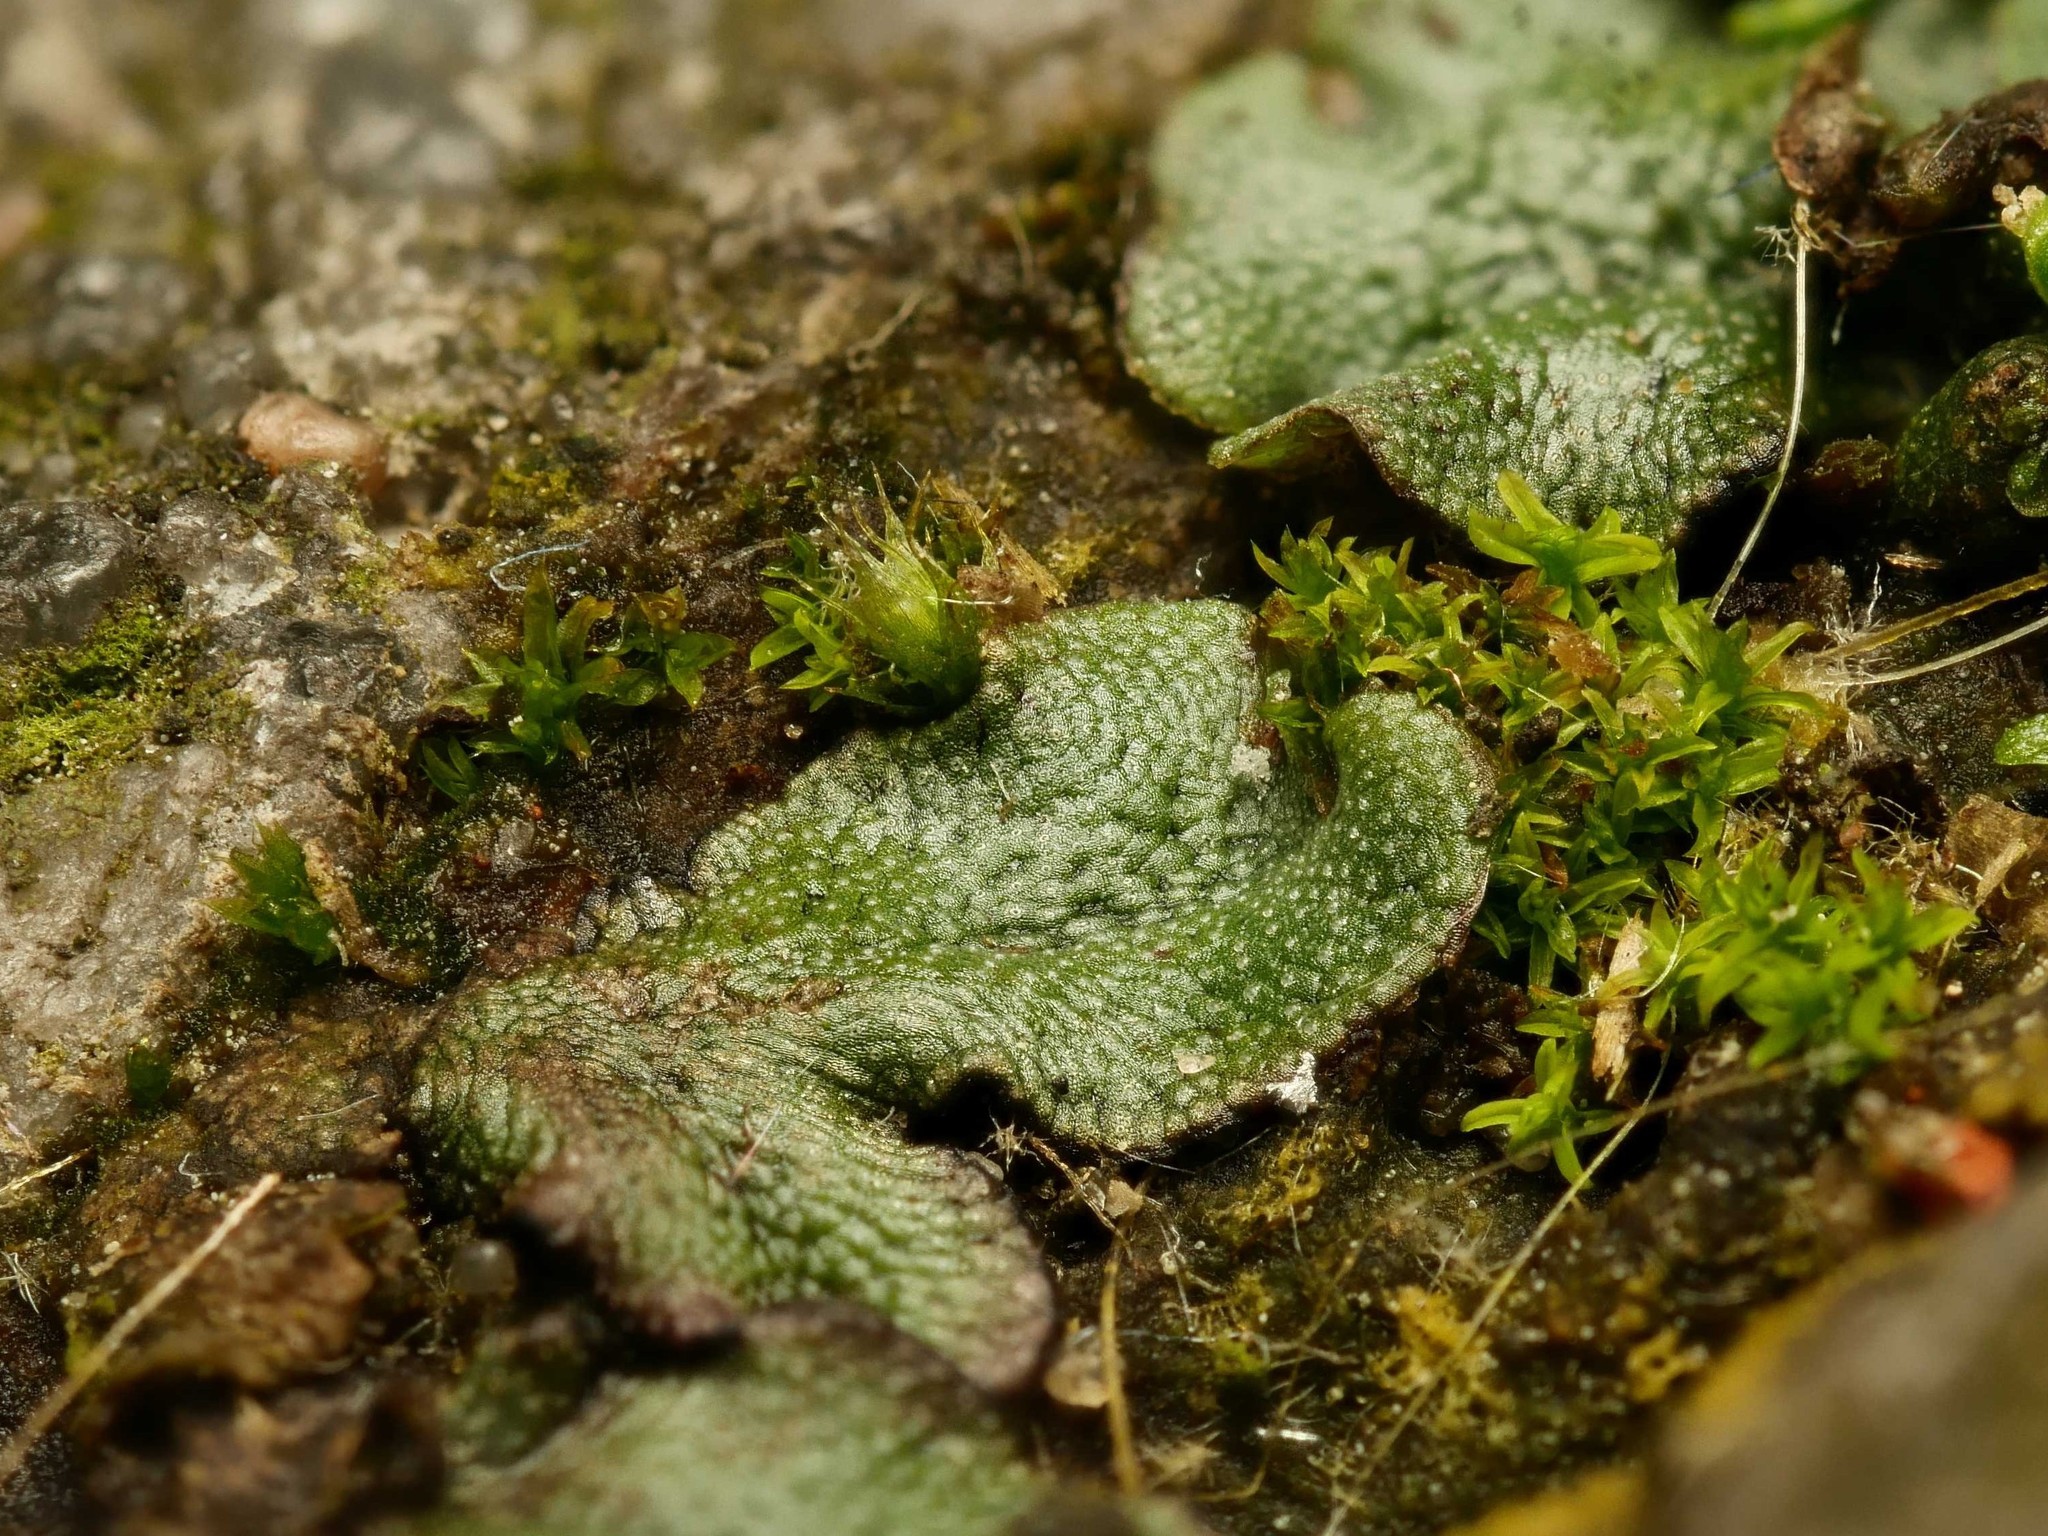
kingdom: Plantae
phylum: Marchantiophyta
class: Marchantiopsida
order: Marchantiales
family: Marchantiaceae
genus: Marchantia
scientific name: Marchantia polymorpha
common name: Common liverwort
